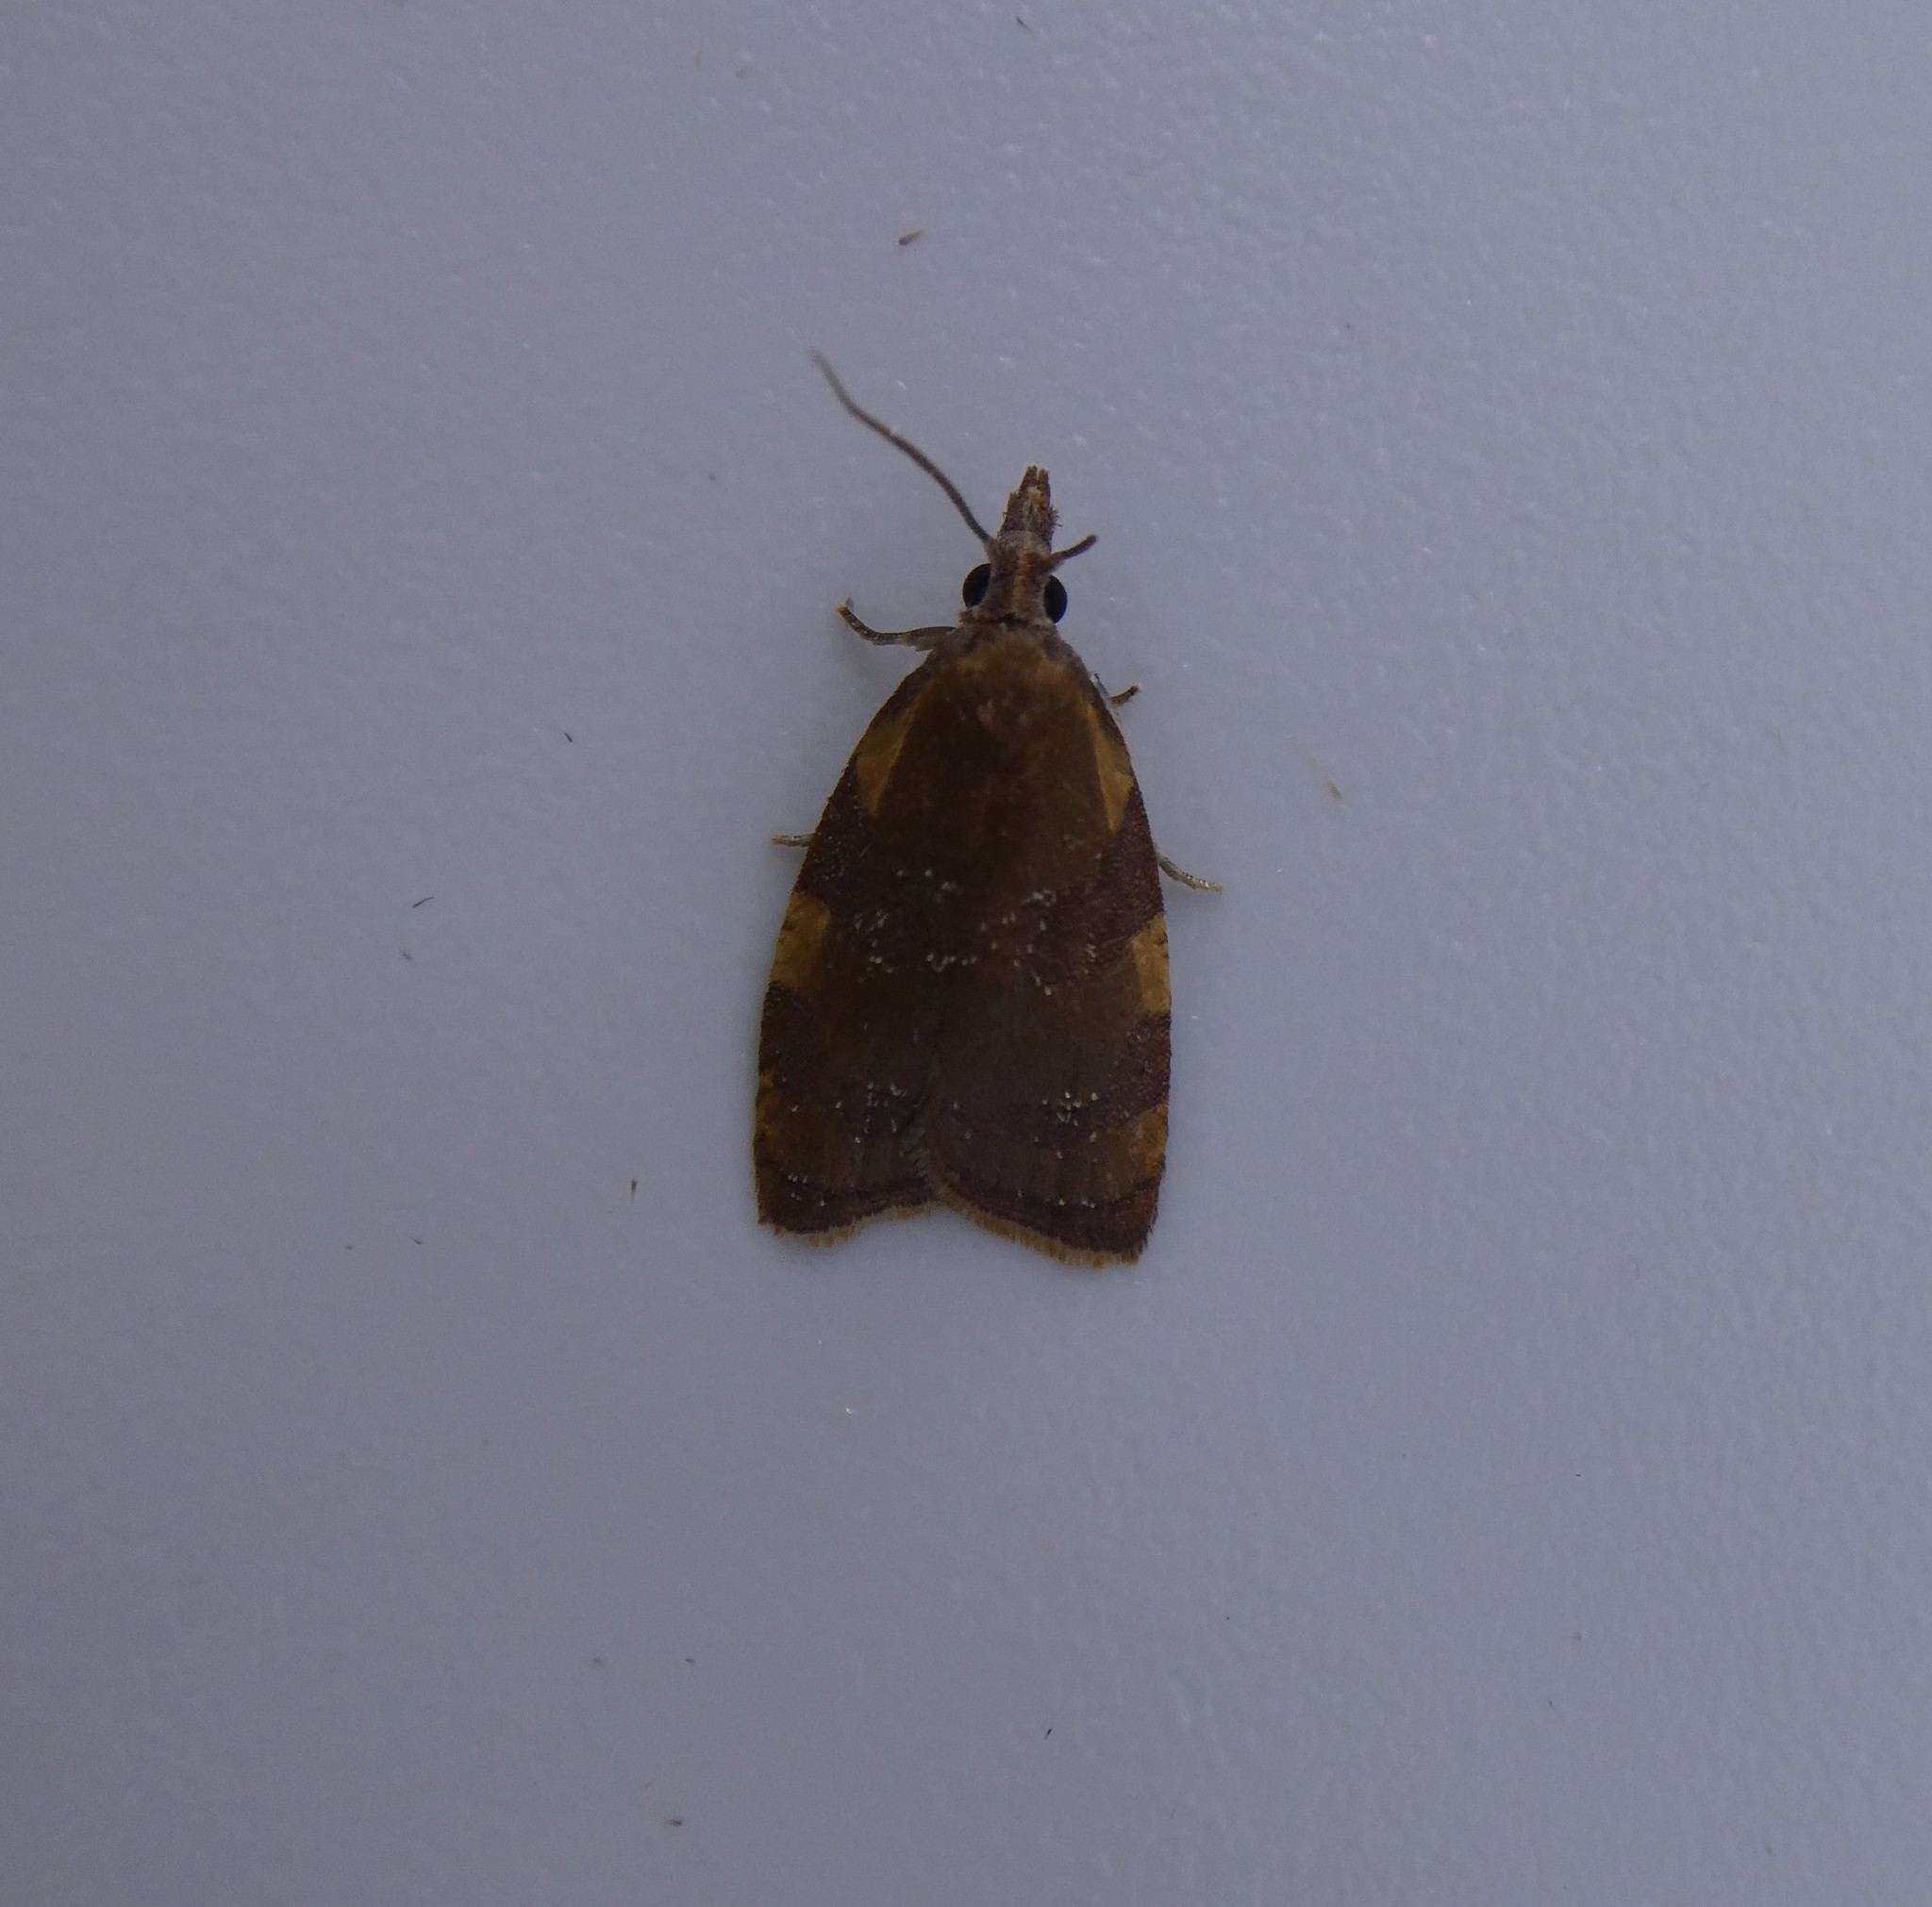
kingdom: Animalia
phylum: Arthropoda
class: Insecta
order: Lepidoptera
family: Tortricidae
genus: Cenopis
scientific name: Cenopis diluticostana
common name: Spring dead-leaf roller moth
